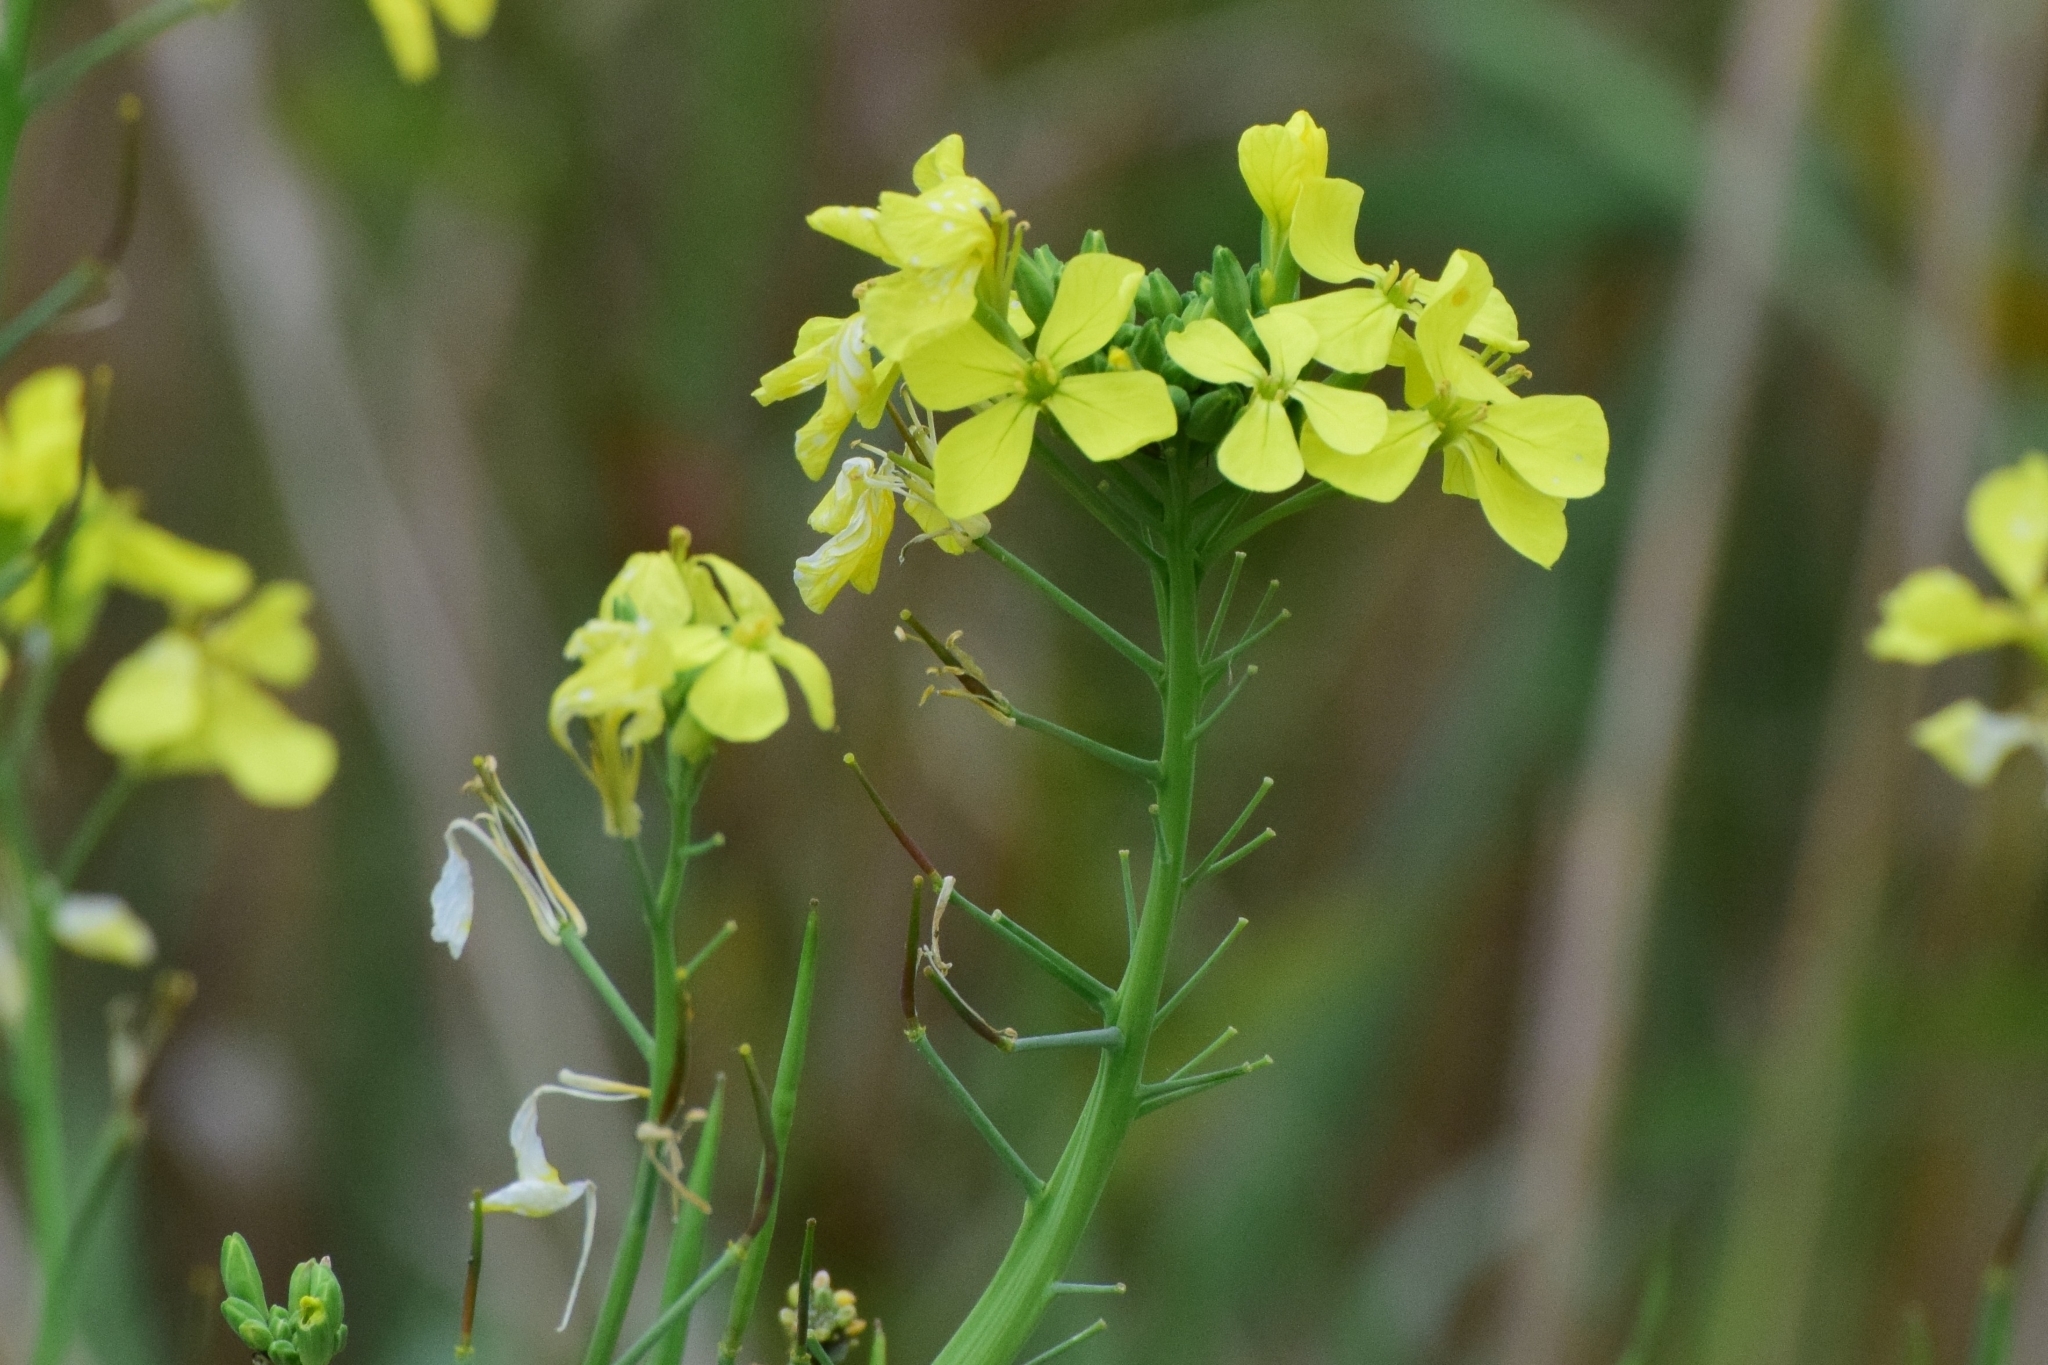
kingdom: Plantae
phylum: Tracheophyta
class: Magnoliopsida
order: Brassicales
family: Brassicaceae
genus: Raphanus
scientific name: Raphanus raphanistrum
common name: Wild radish
